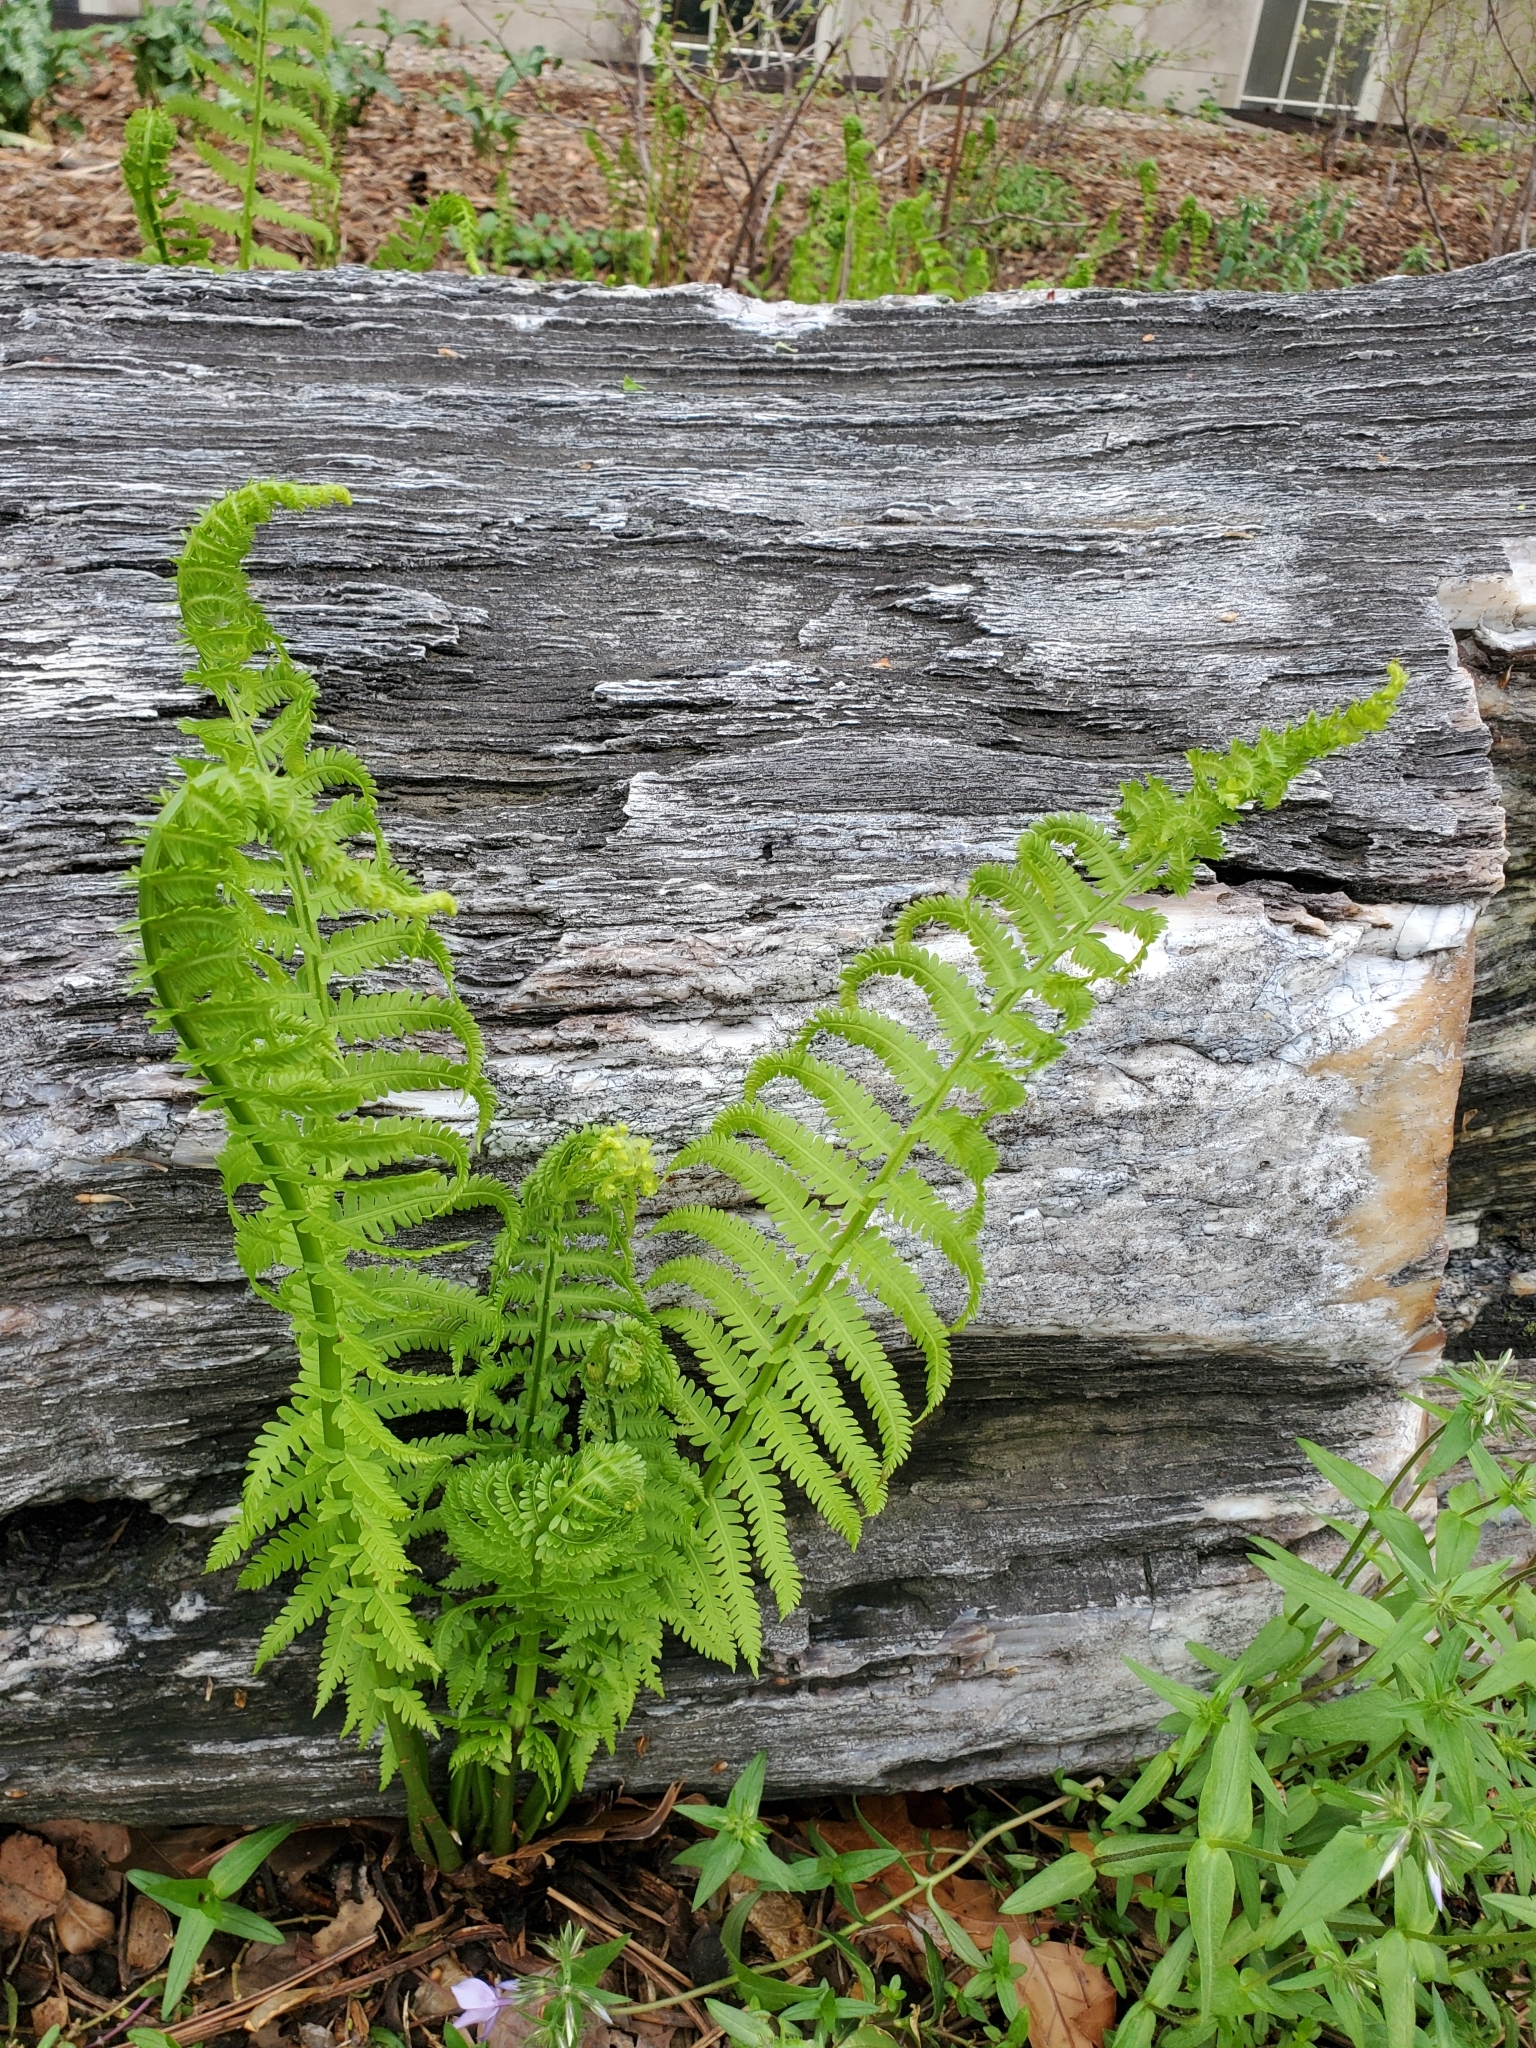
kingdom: Plantae
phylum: Tracheophyta
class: Polypodiopsida
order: Polypodiales
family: Onocleaceae
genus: Matteuccia
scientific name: Matteuccia struthiopteris
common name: Ostrich fern
